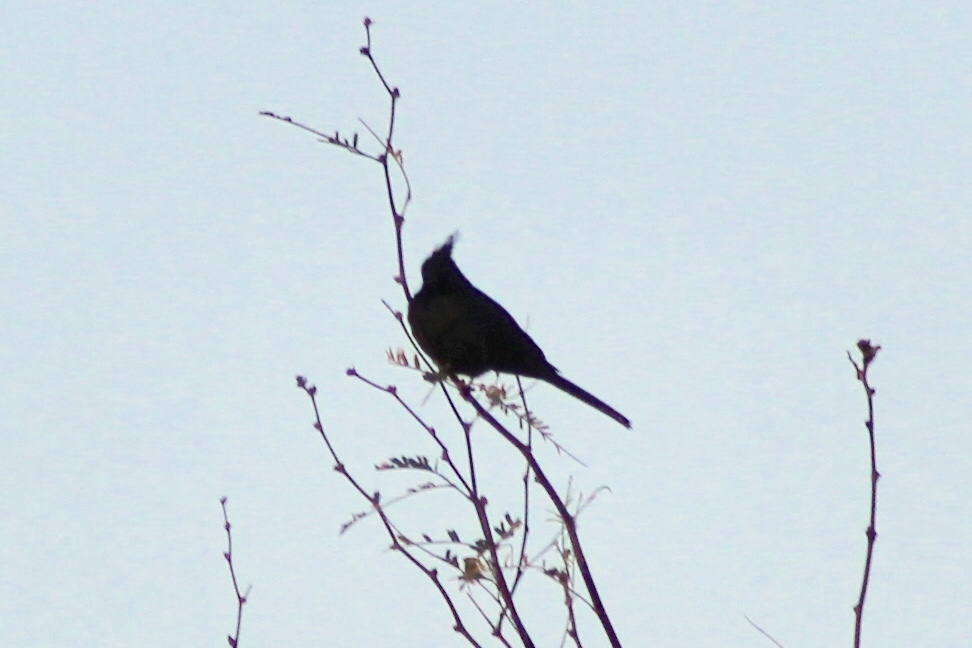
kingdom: Animalia
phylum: Chordata
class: Aves
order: Passeriformes
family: Ptilogonatidae
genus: Phainopepla
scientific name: Phainopepla nitens
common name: Phainopepla
